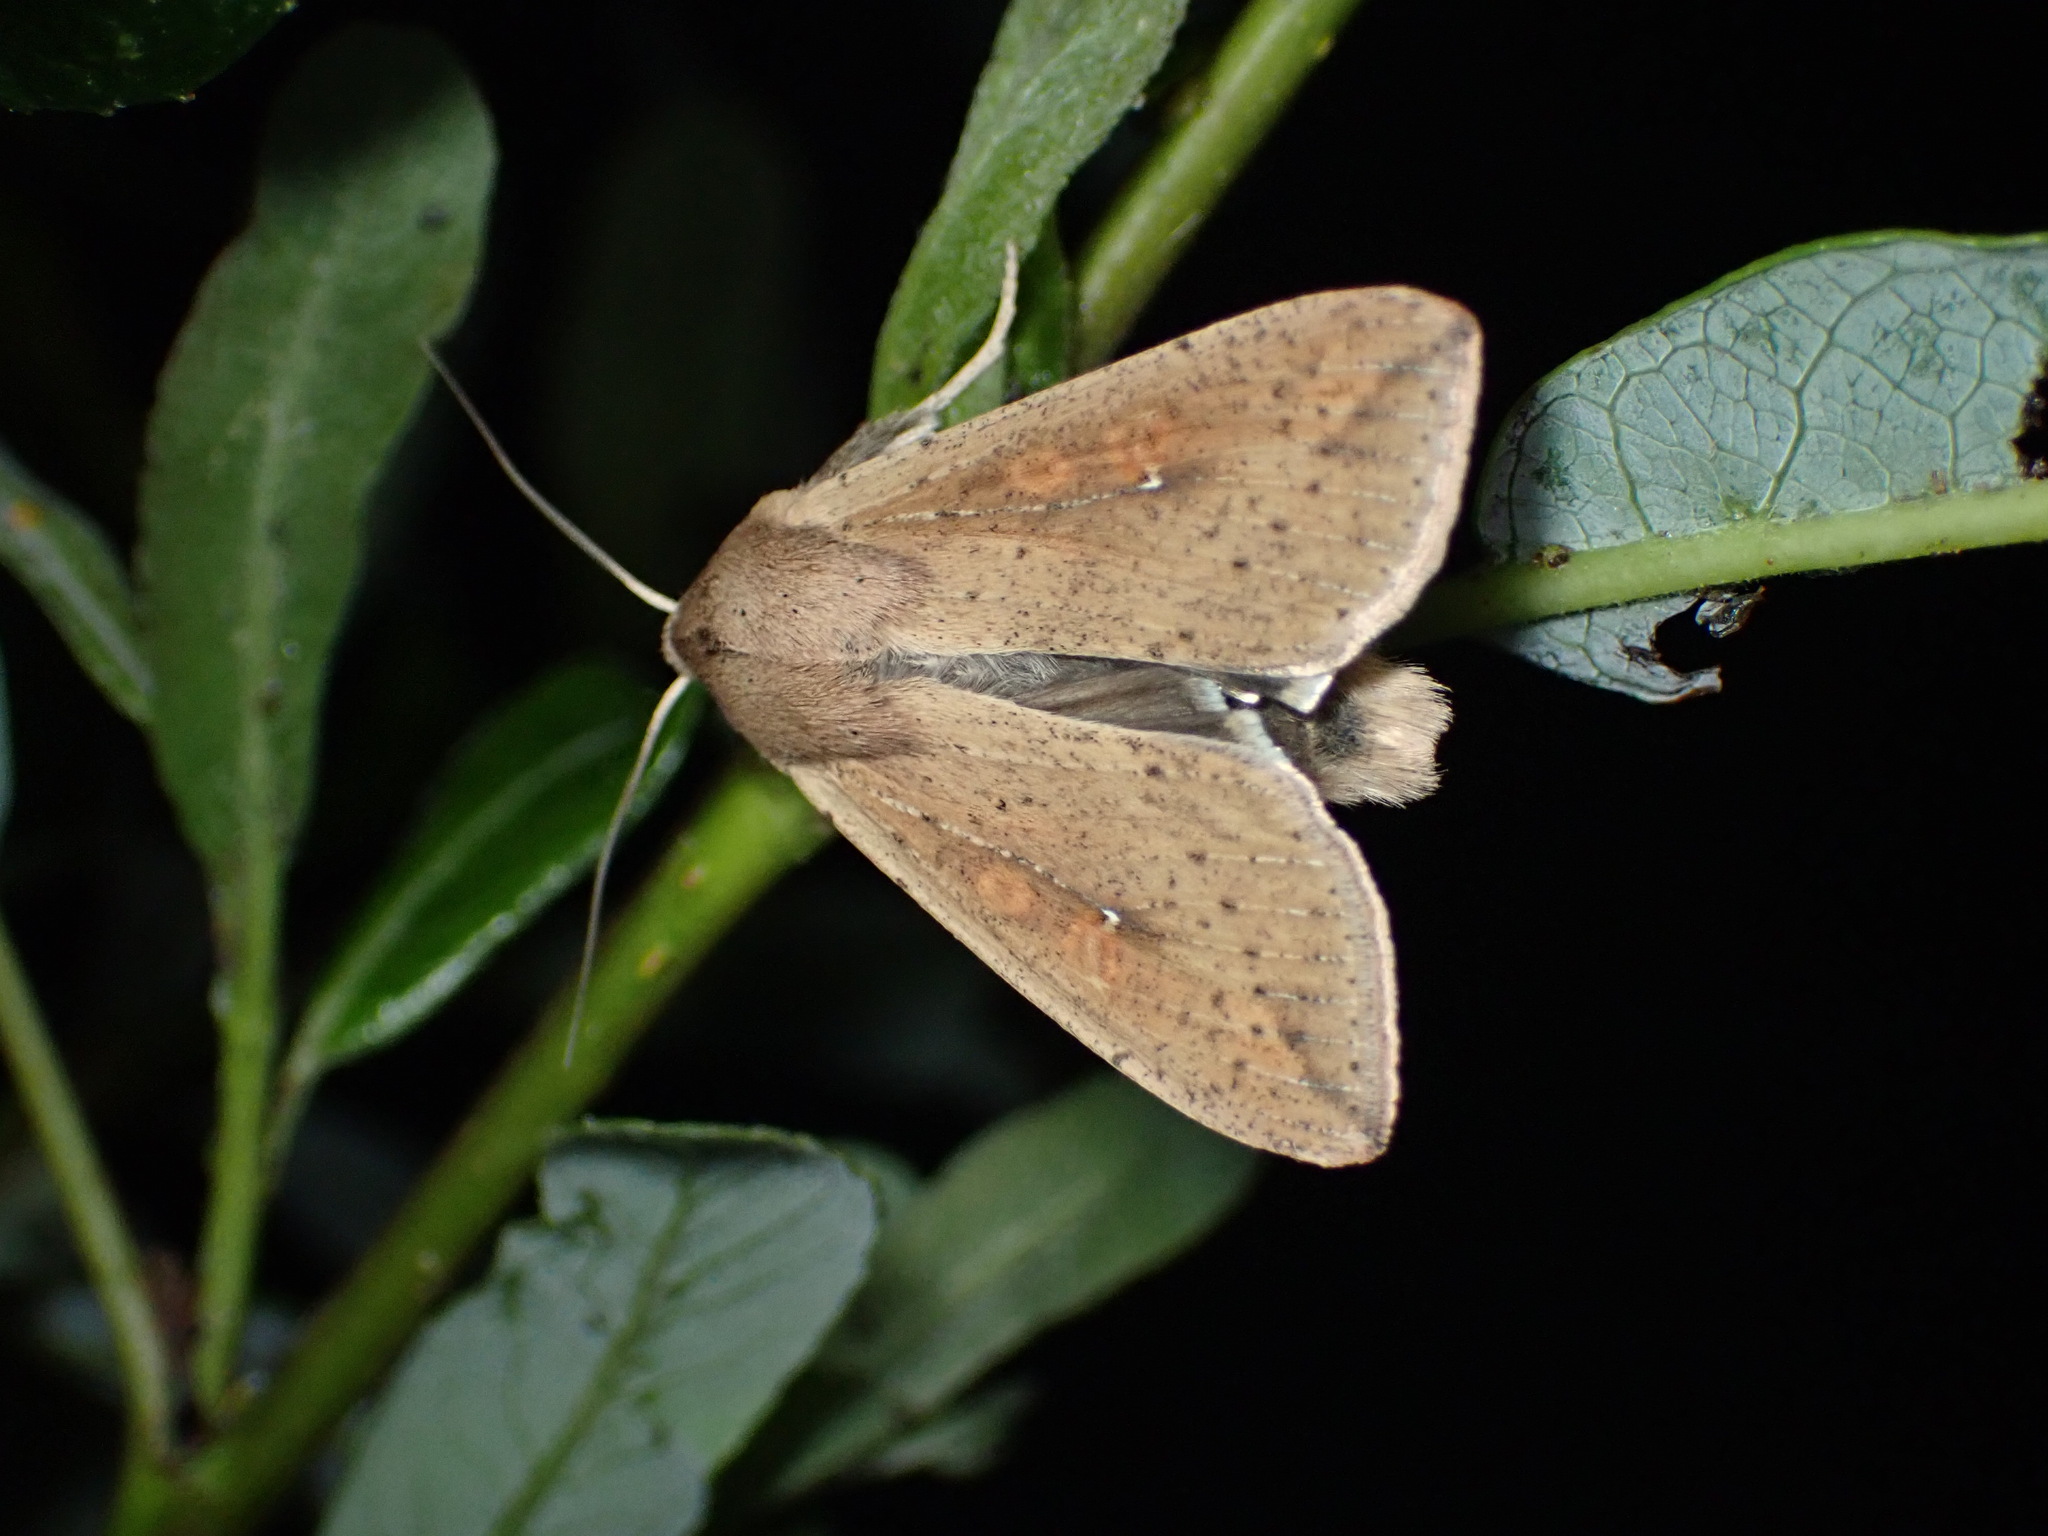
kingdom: Animalia
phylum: Arthropoda
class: Insecta
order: Lepidoptera
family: Noctuidae
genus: Mythimna
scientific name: Mythimna unipuncta
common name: White-speck
